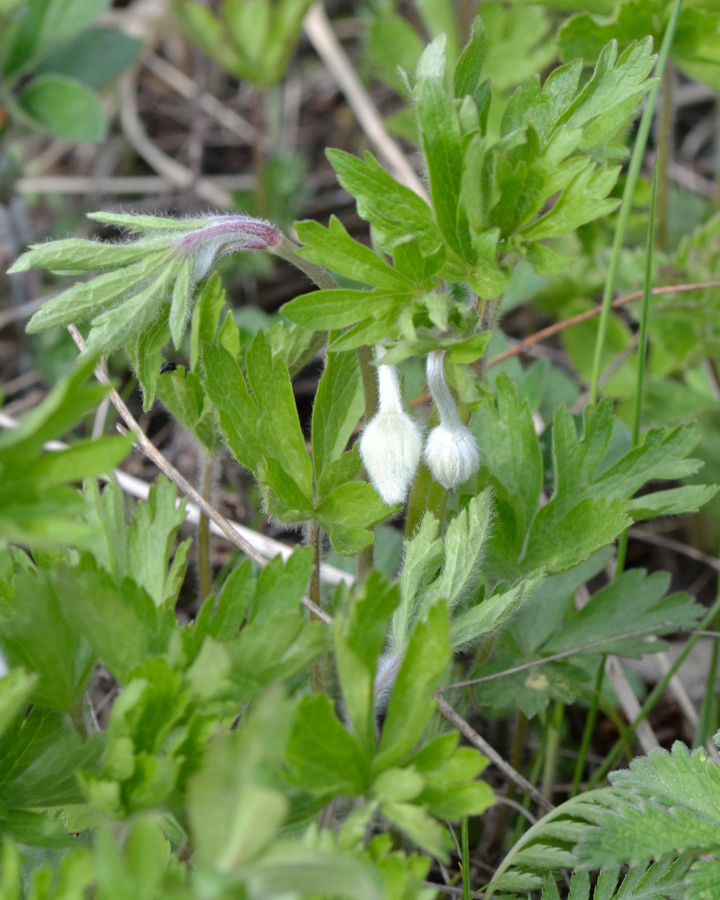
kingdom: Plantae
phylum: Tracheophyta
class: Magnoliopsida
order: Ranunculales
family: Ranunculaceae
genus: Anemone
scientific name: Anemone sylvestris
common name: Snowdrop anemone
